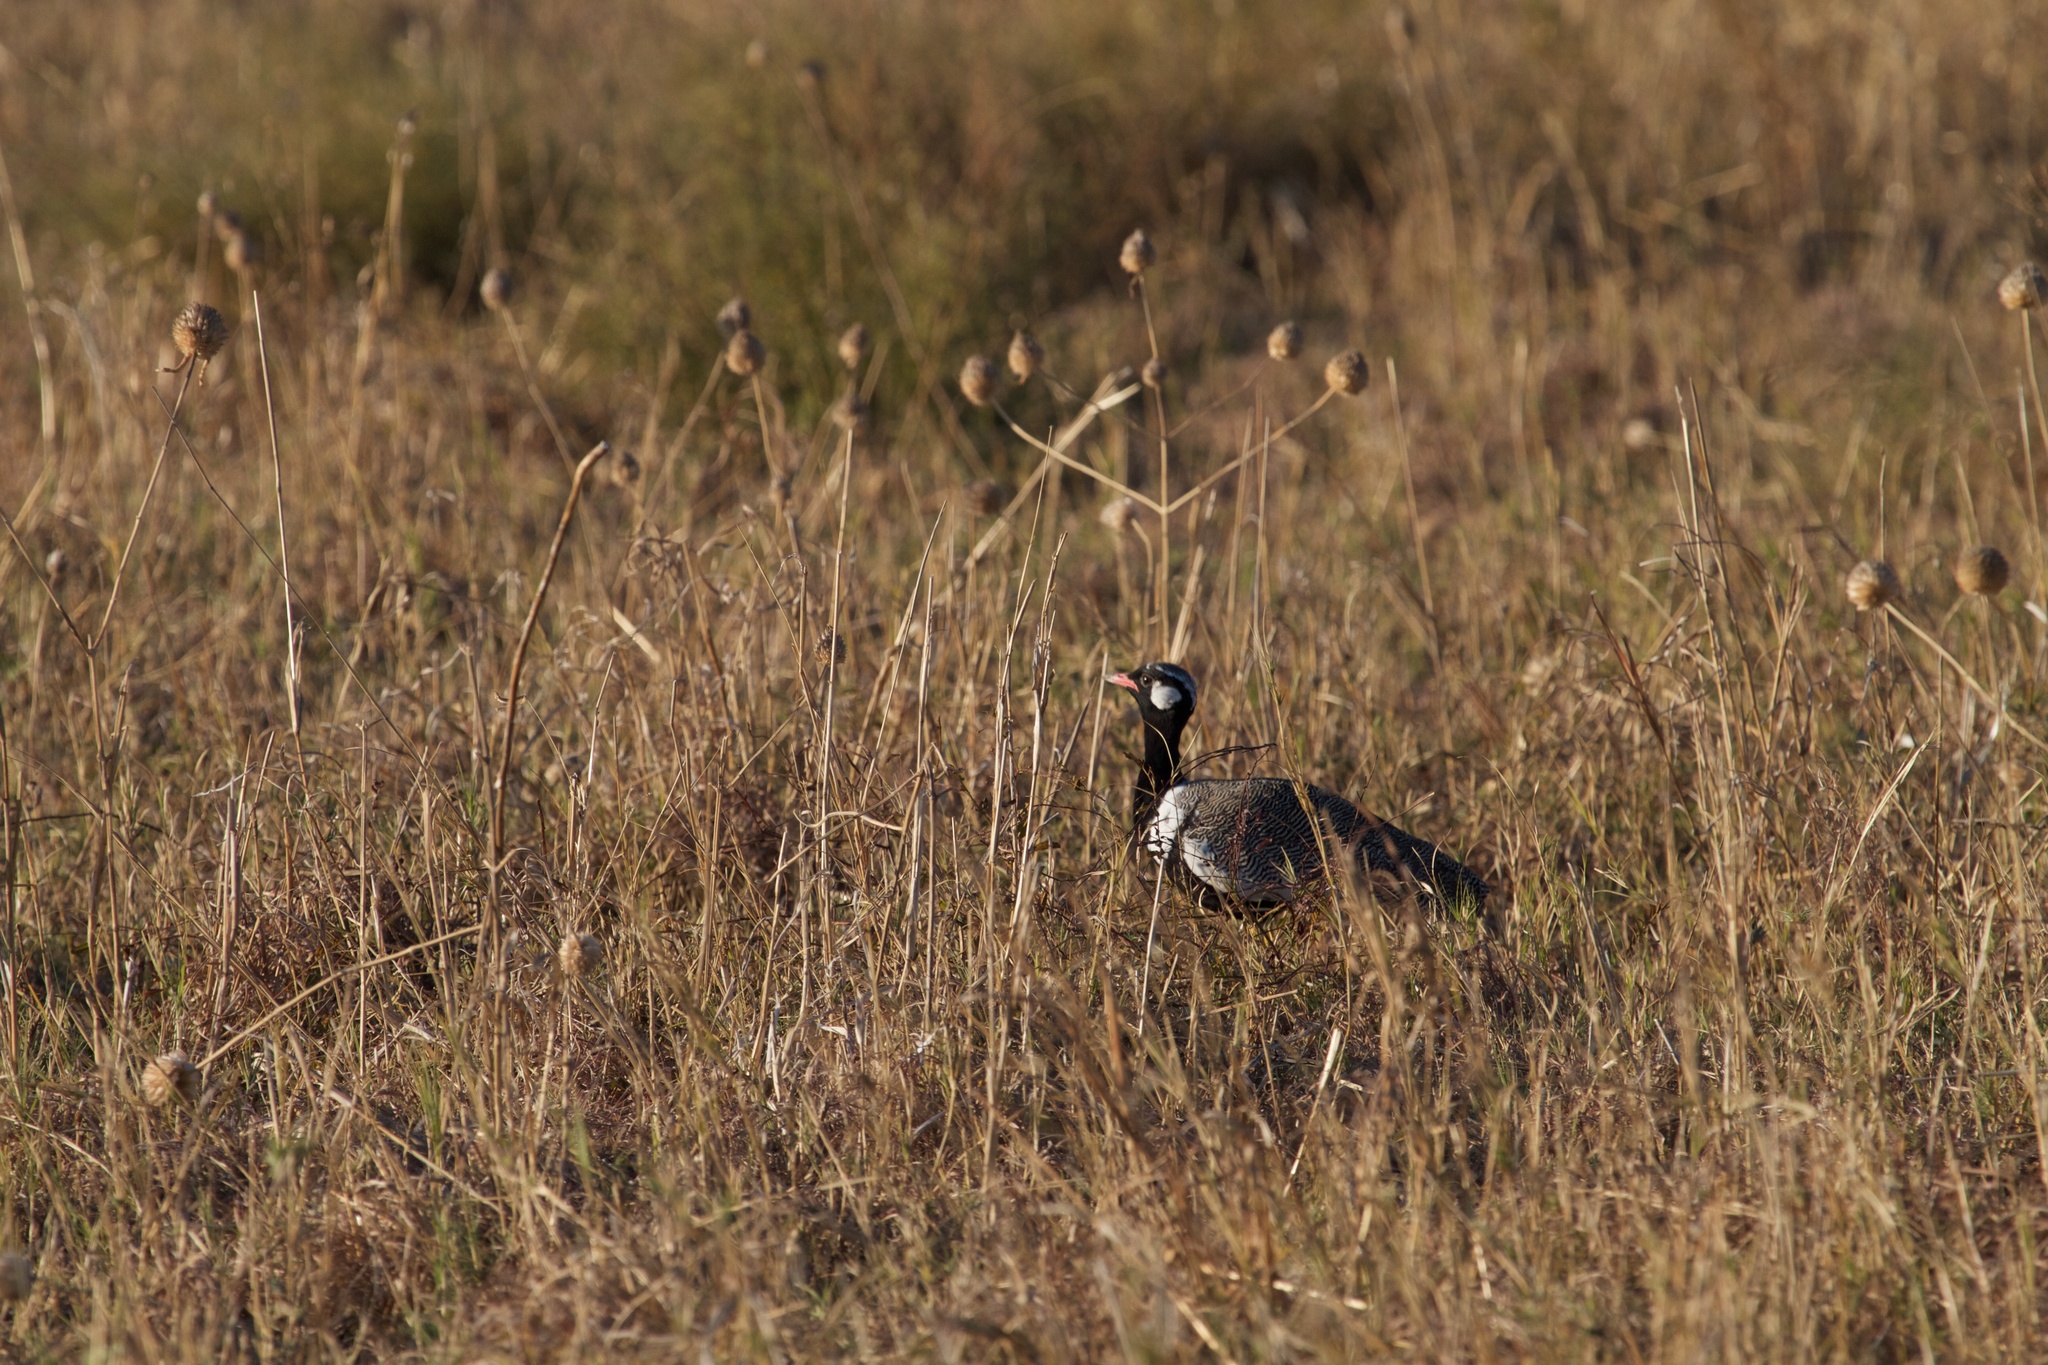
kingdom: Animalia
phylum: Chordata
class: Aves
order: Otidiformes
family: Otididae
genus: Afrotis
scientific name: Afrotis afraoides
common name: Northern black korhaan
